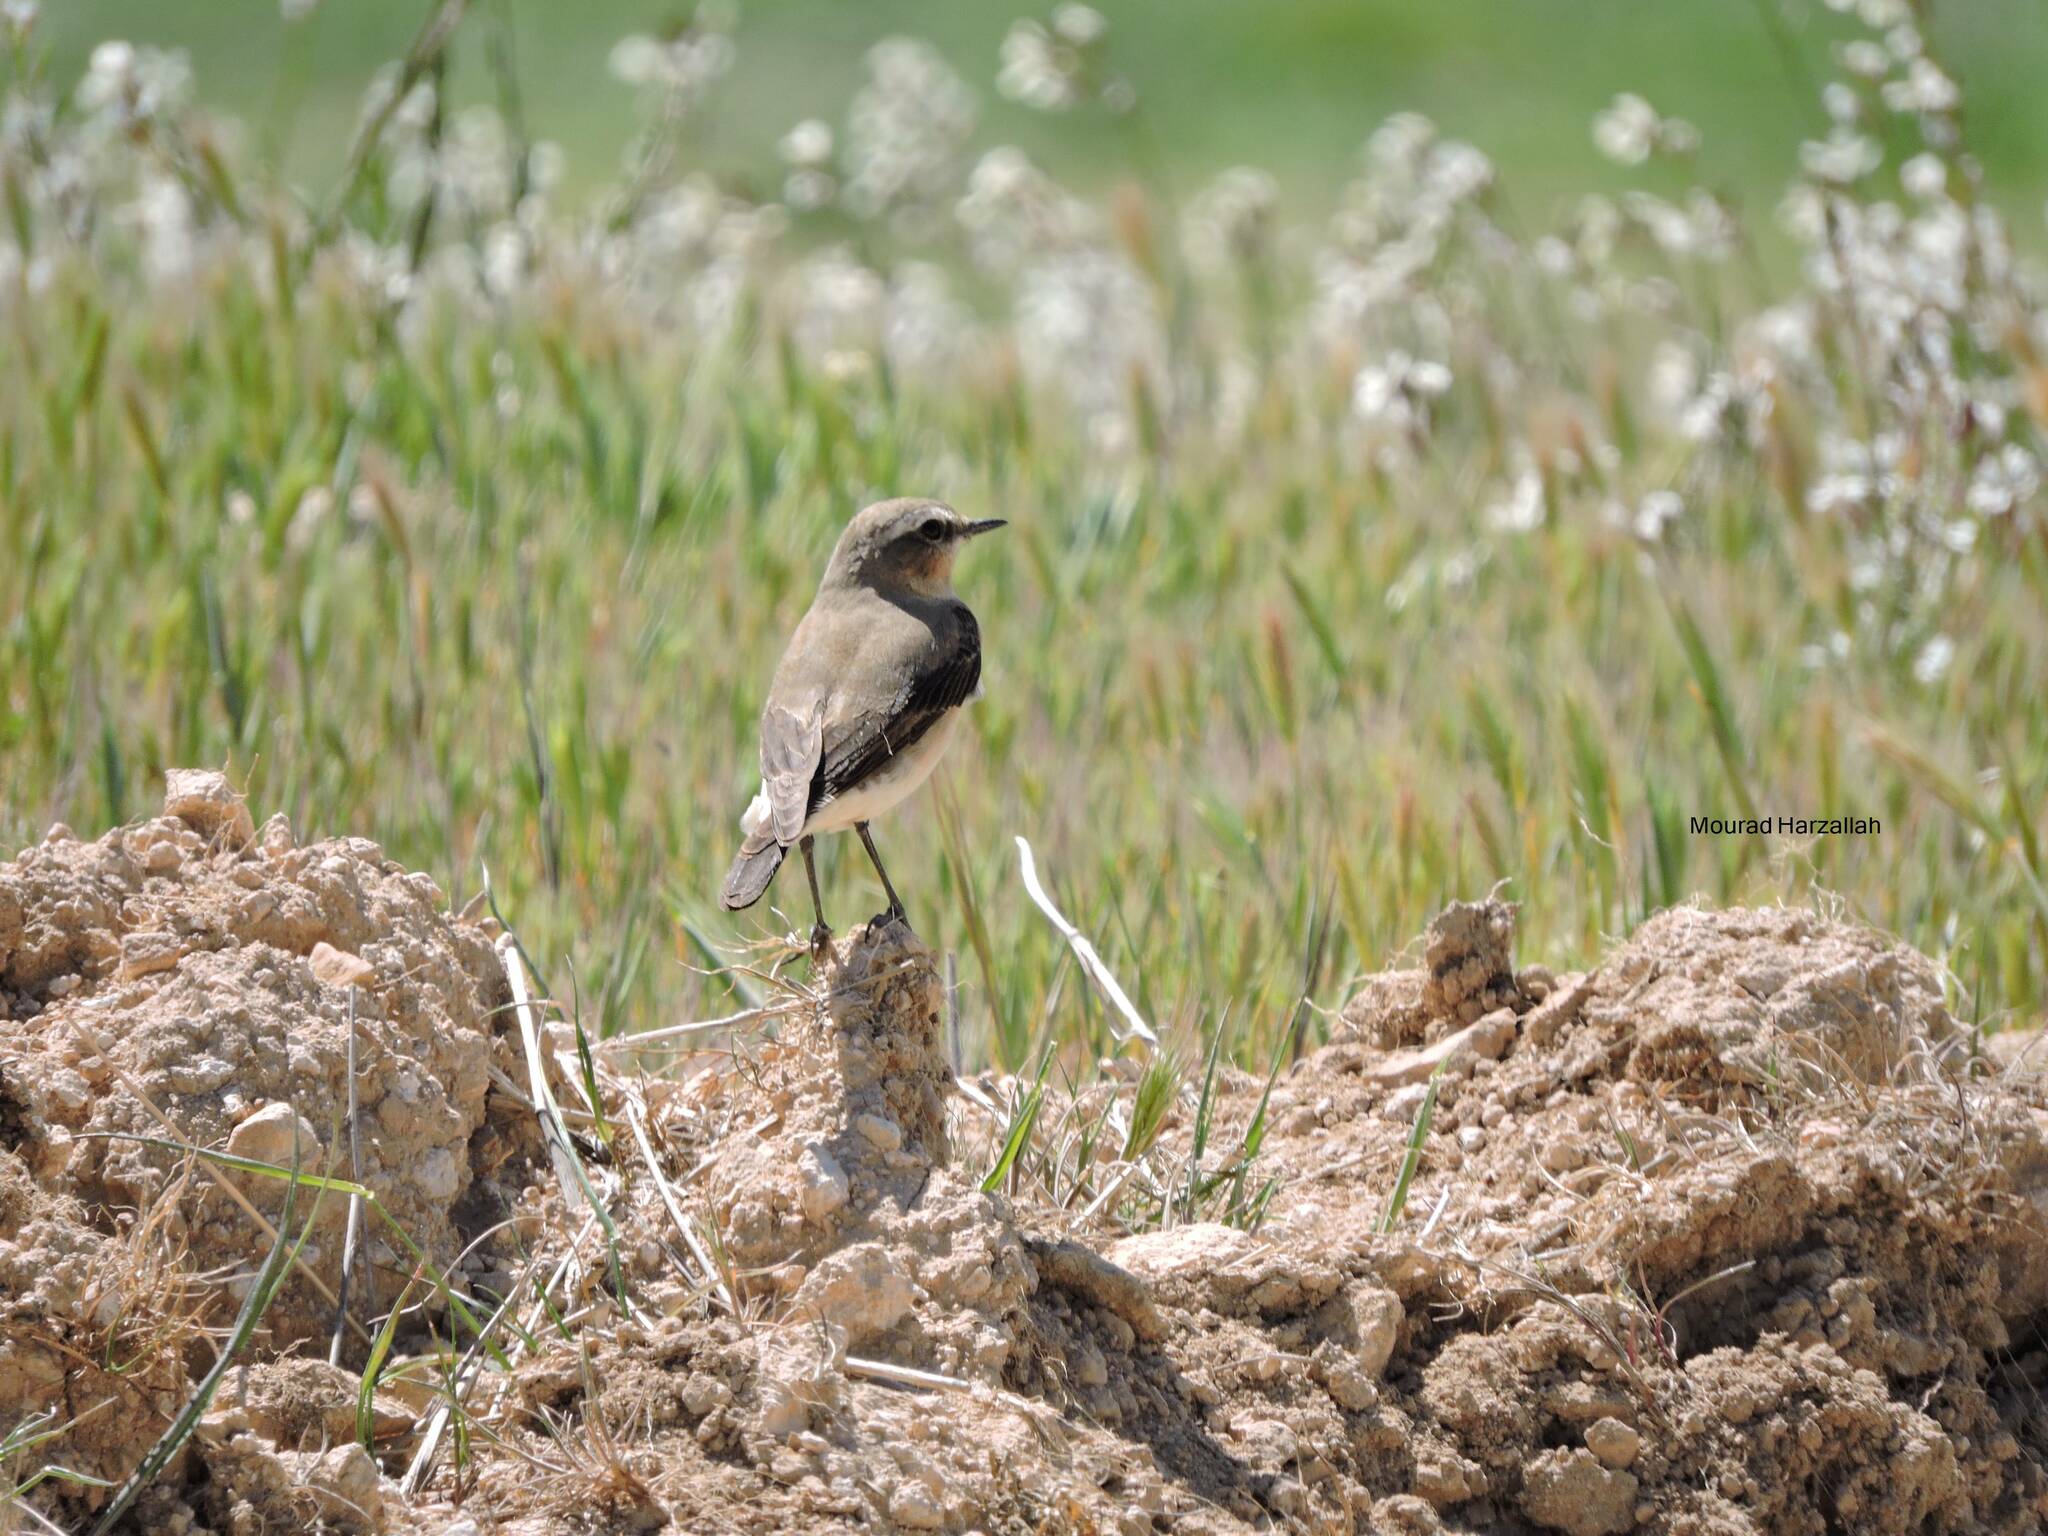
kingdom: Animalia
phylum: Chordata
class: Aves
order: Passeriformes
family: Muscicapidae
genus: Oenanthe
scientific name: Oenanthe oenanthe
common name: Northern wheatear
